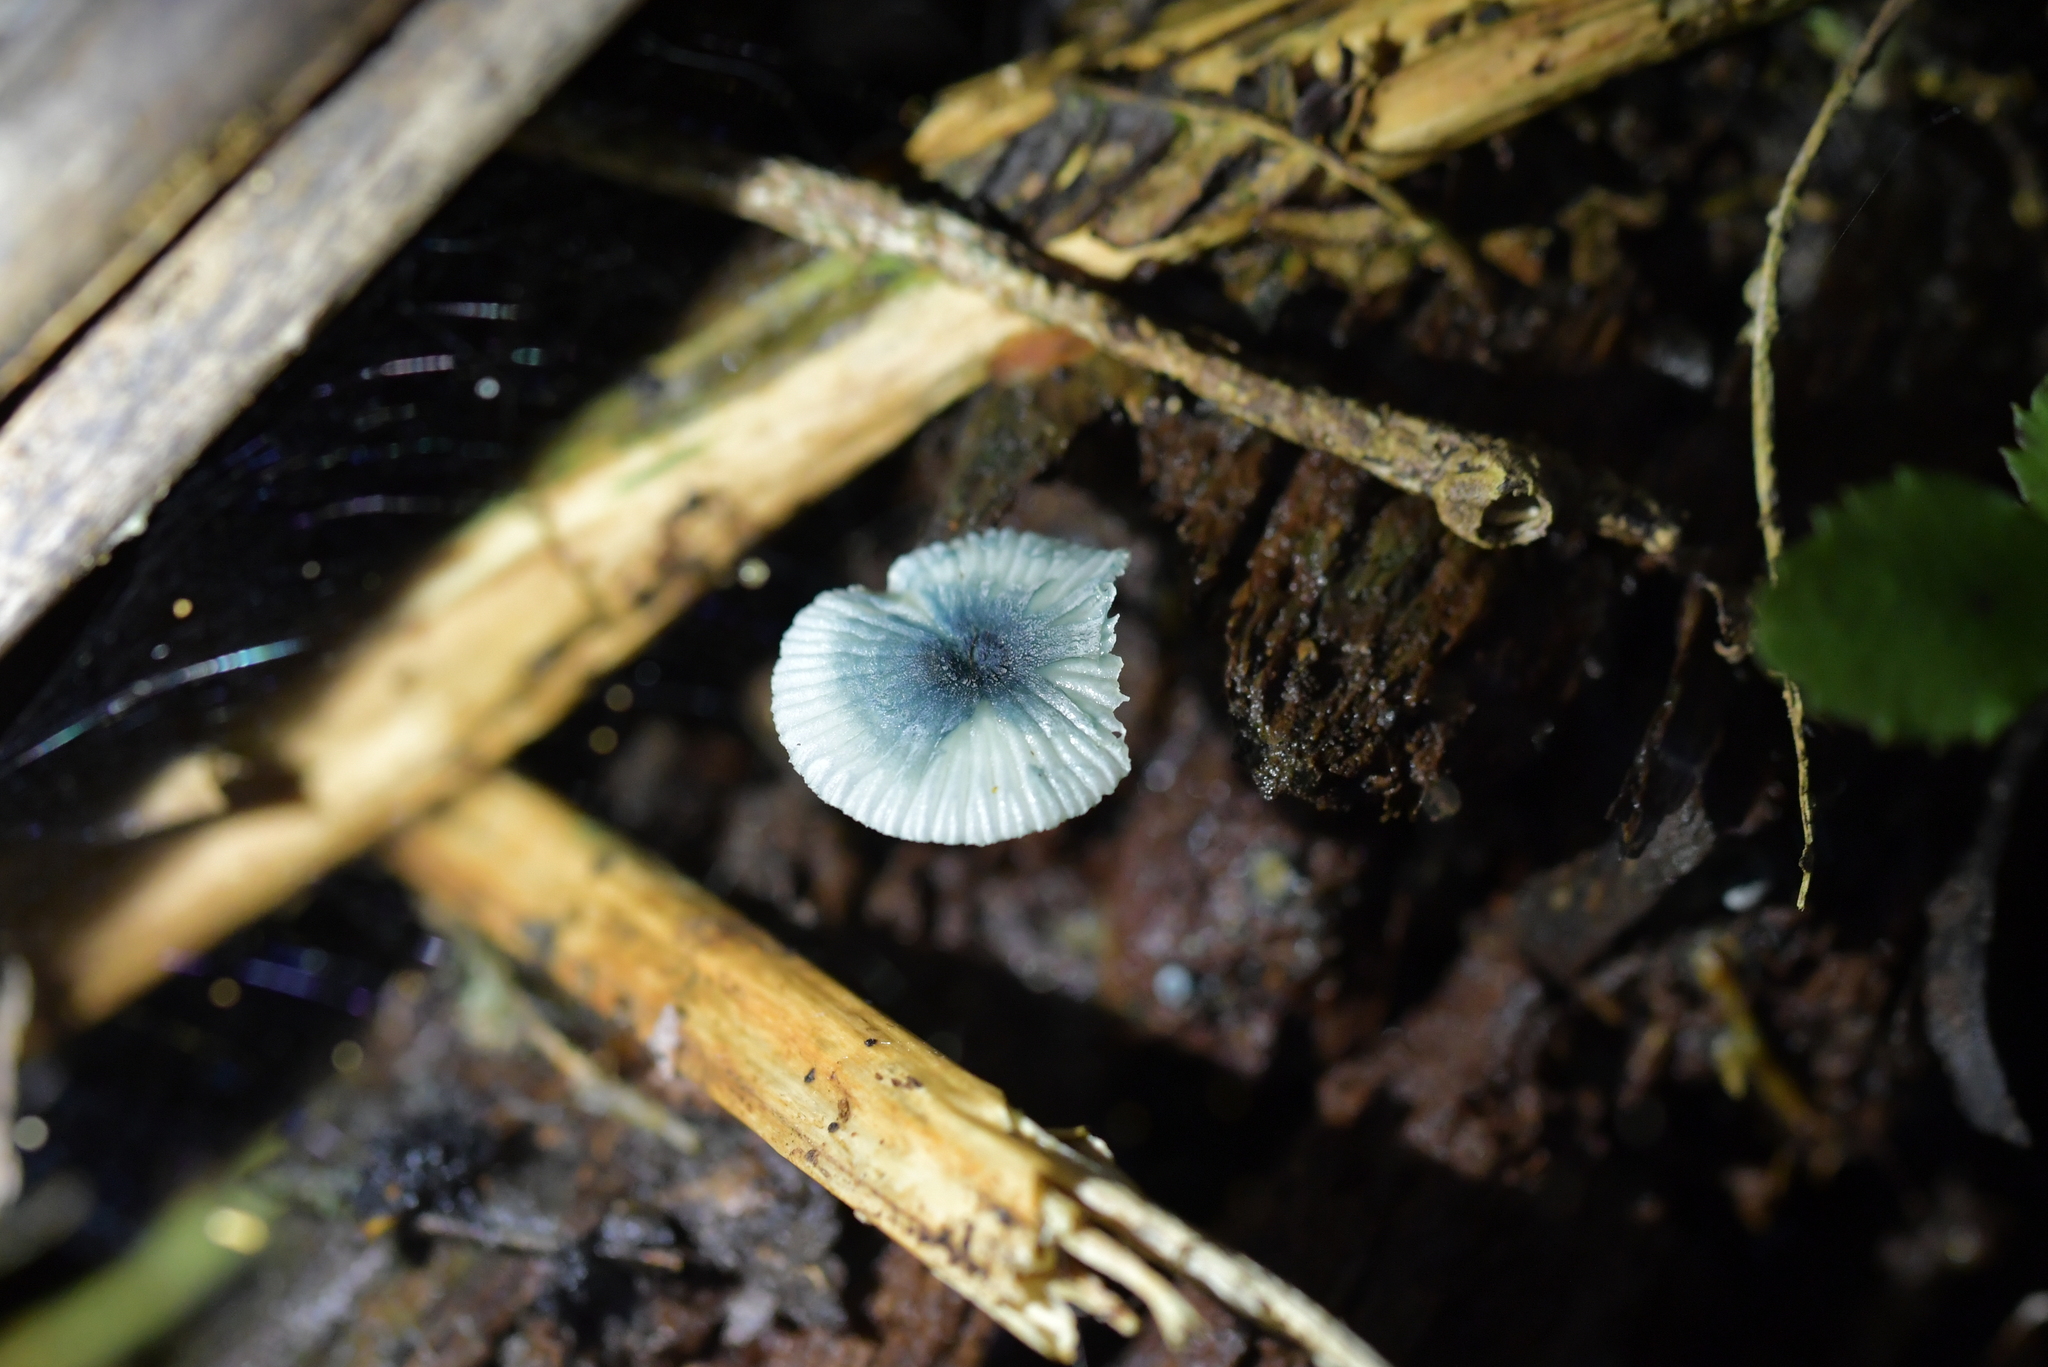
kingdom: Fungi
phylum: Basidiomycota
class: Agaricomycetes
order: Agaricales
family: Mycenaceae
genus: Mycena
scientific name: Mycena interrupta
